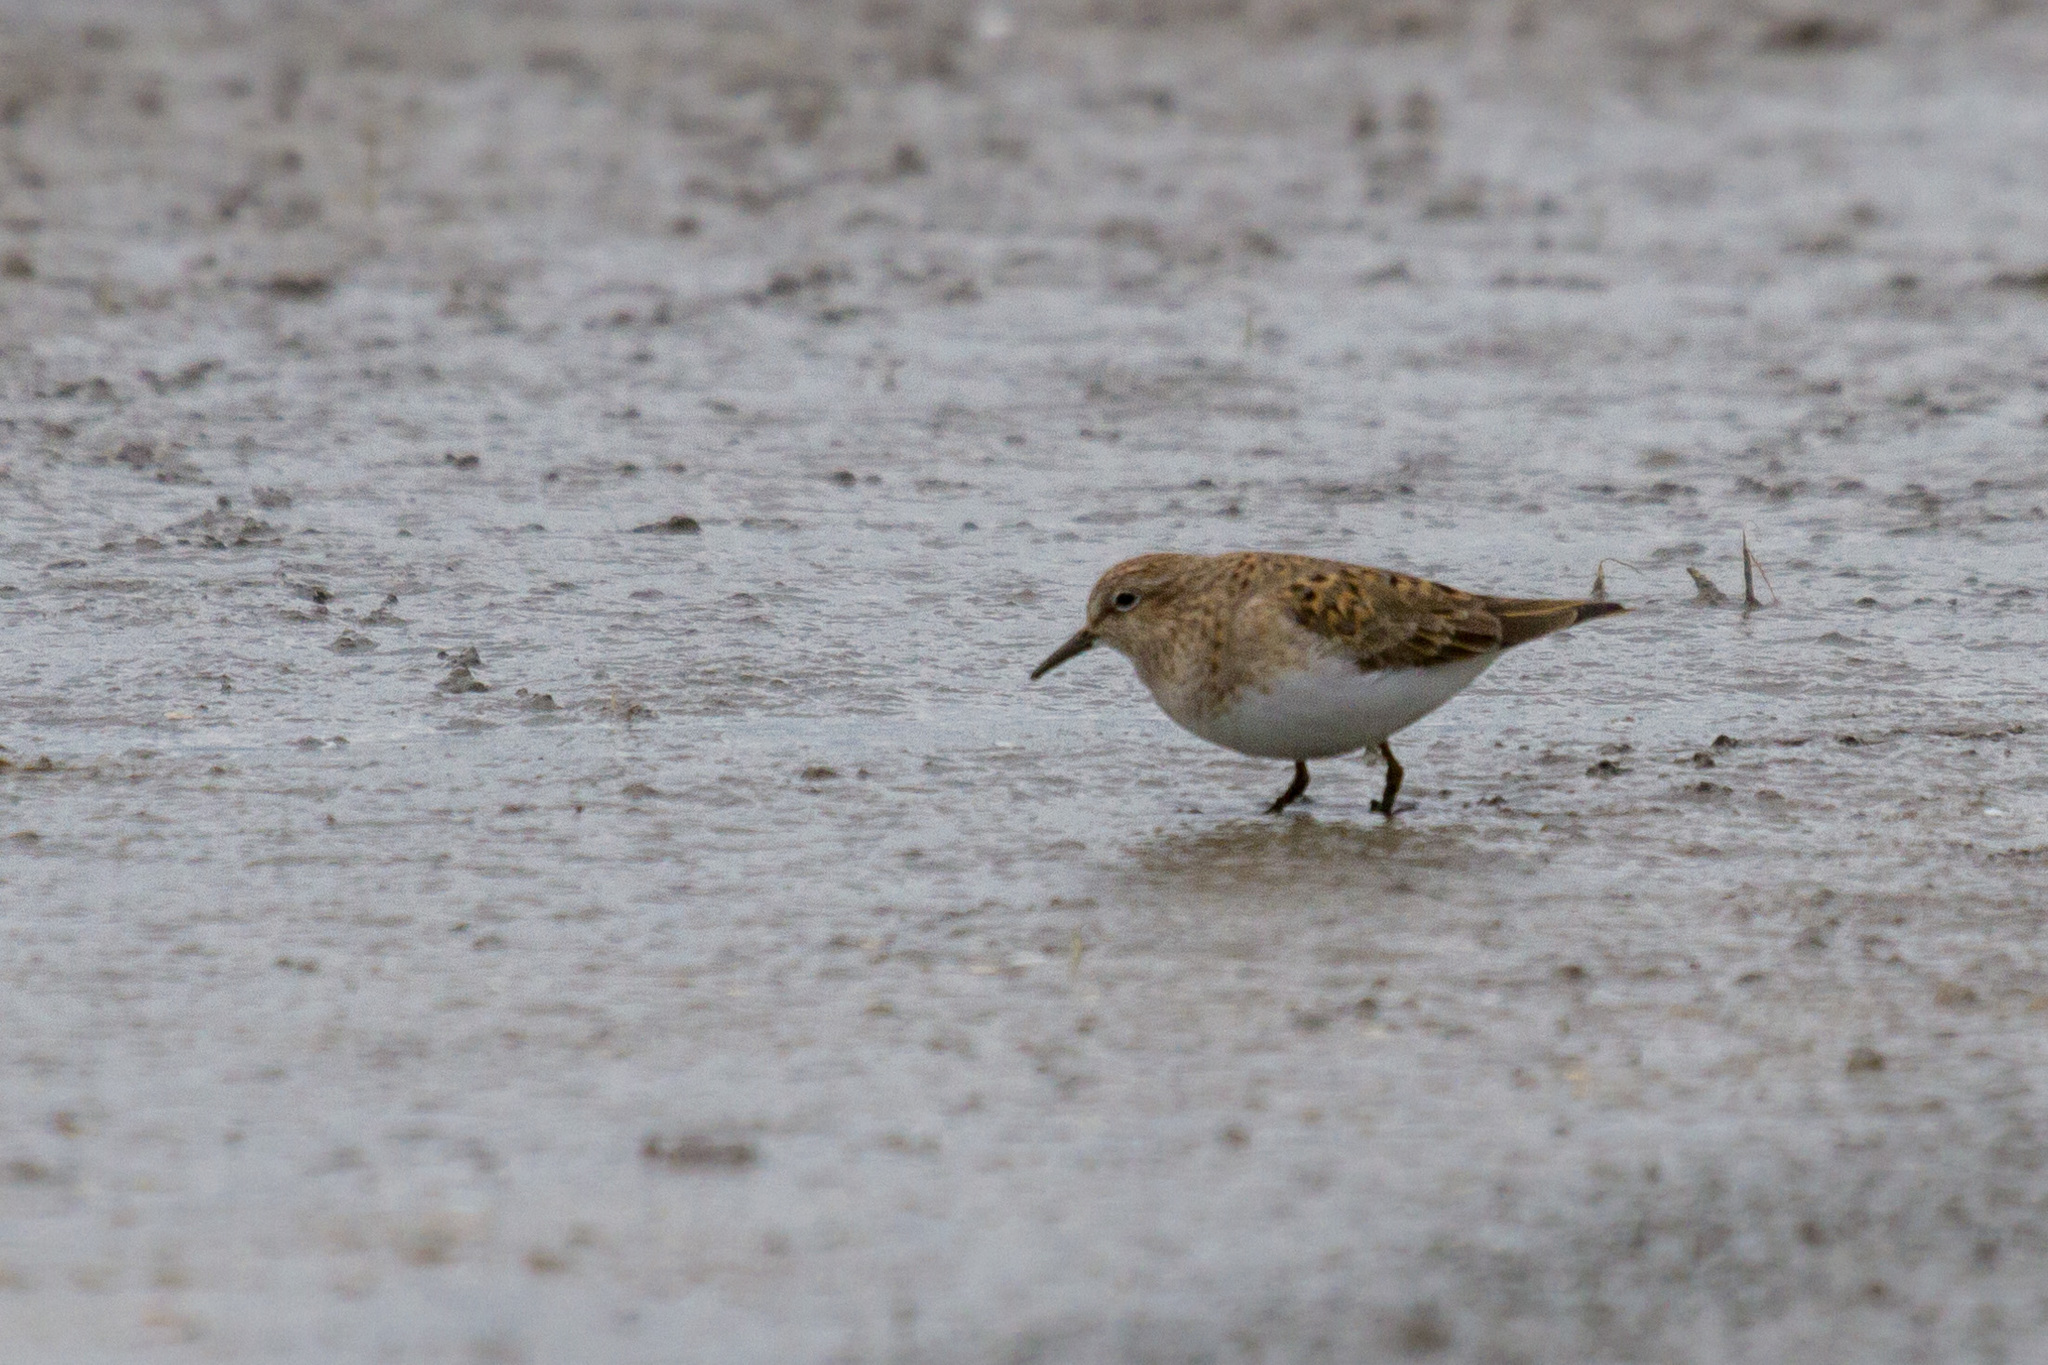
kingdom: Animalia
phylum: Chordata
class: Aves
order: Charadriiformes
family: Scolopacidae
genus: Calidris
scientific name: Calidris temminckii
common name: Temminck's stint
